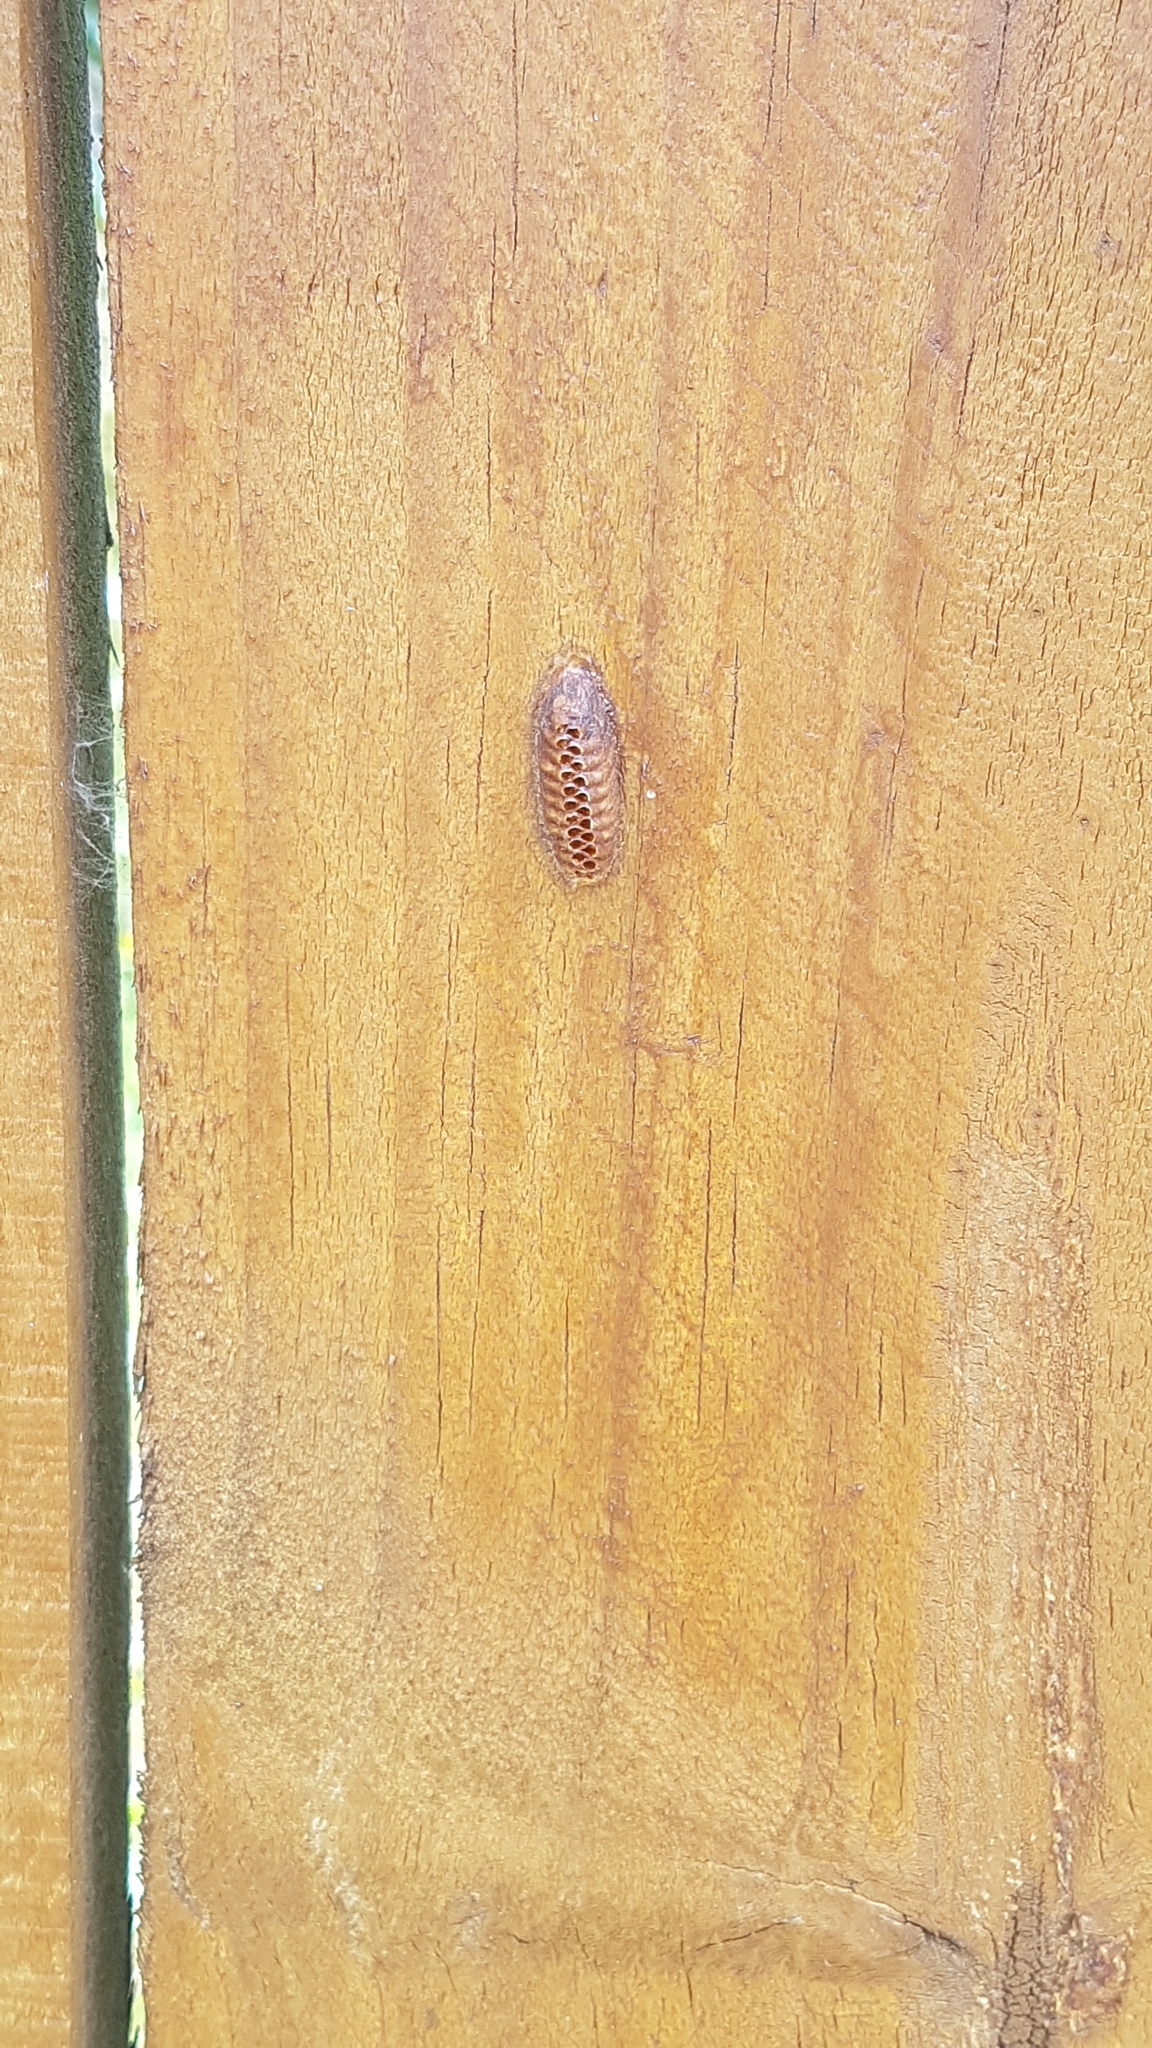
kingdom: Animalia
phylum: Arthropoda
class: Insecta
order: Mantodea
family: Mantidae
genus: Orthodera
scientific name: Orthodera novaezealandiae
